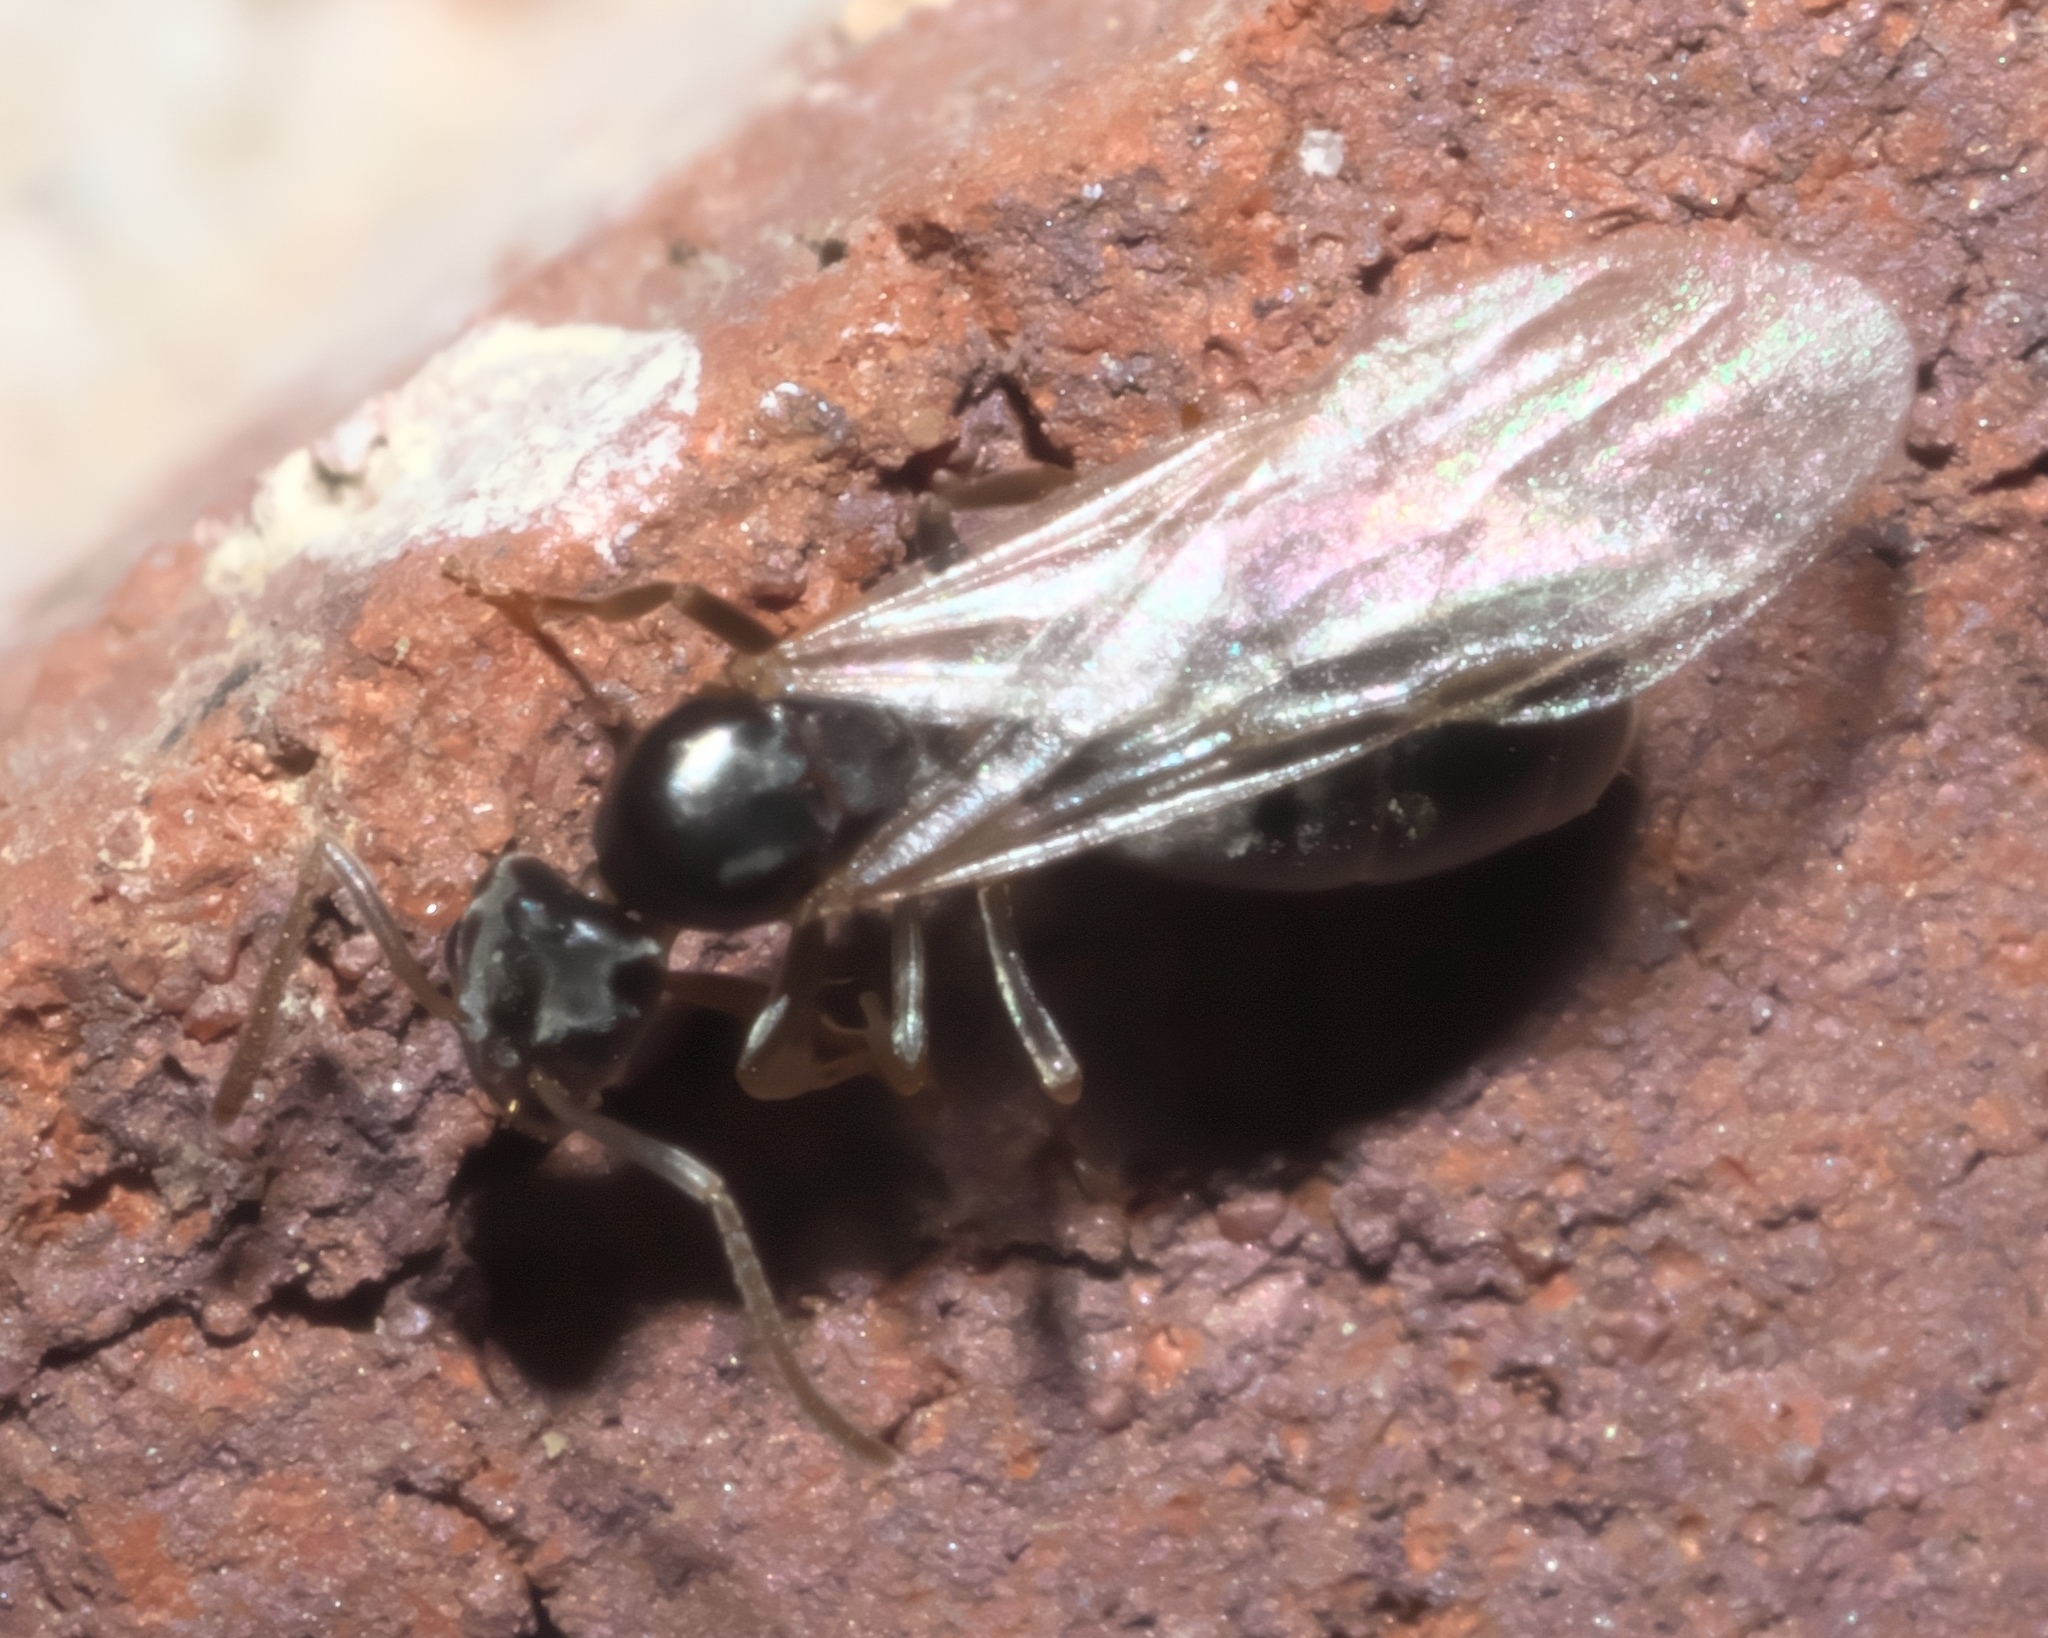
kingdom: Animalia
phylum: Arthropoda
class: Insecta
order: Hymenoptera
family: Formicidae
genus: Tapinoma
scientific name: Tapinoma sessile
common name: Odorous house ant
